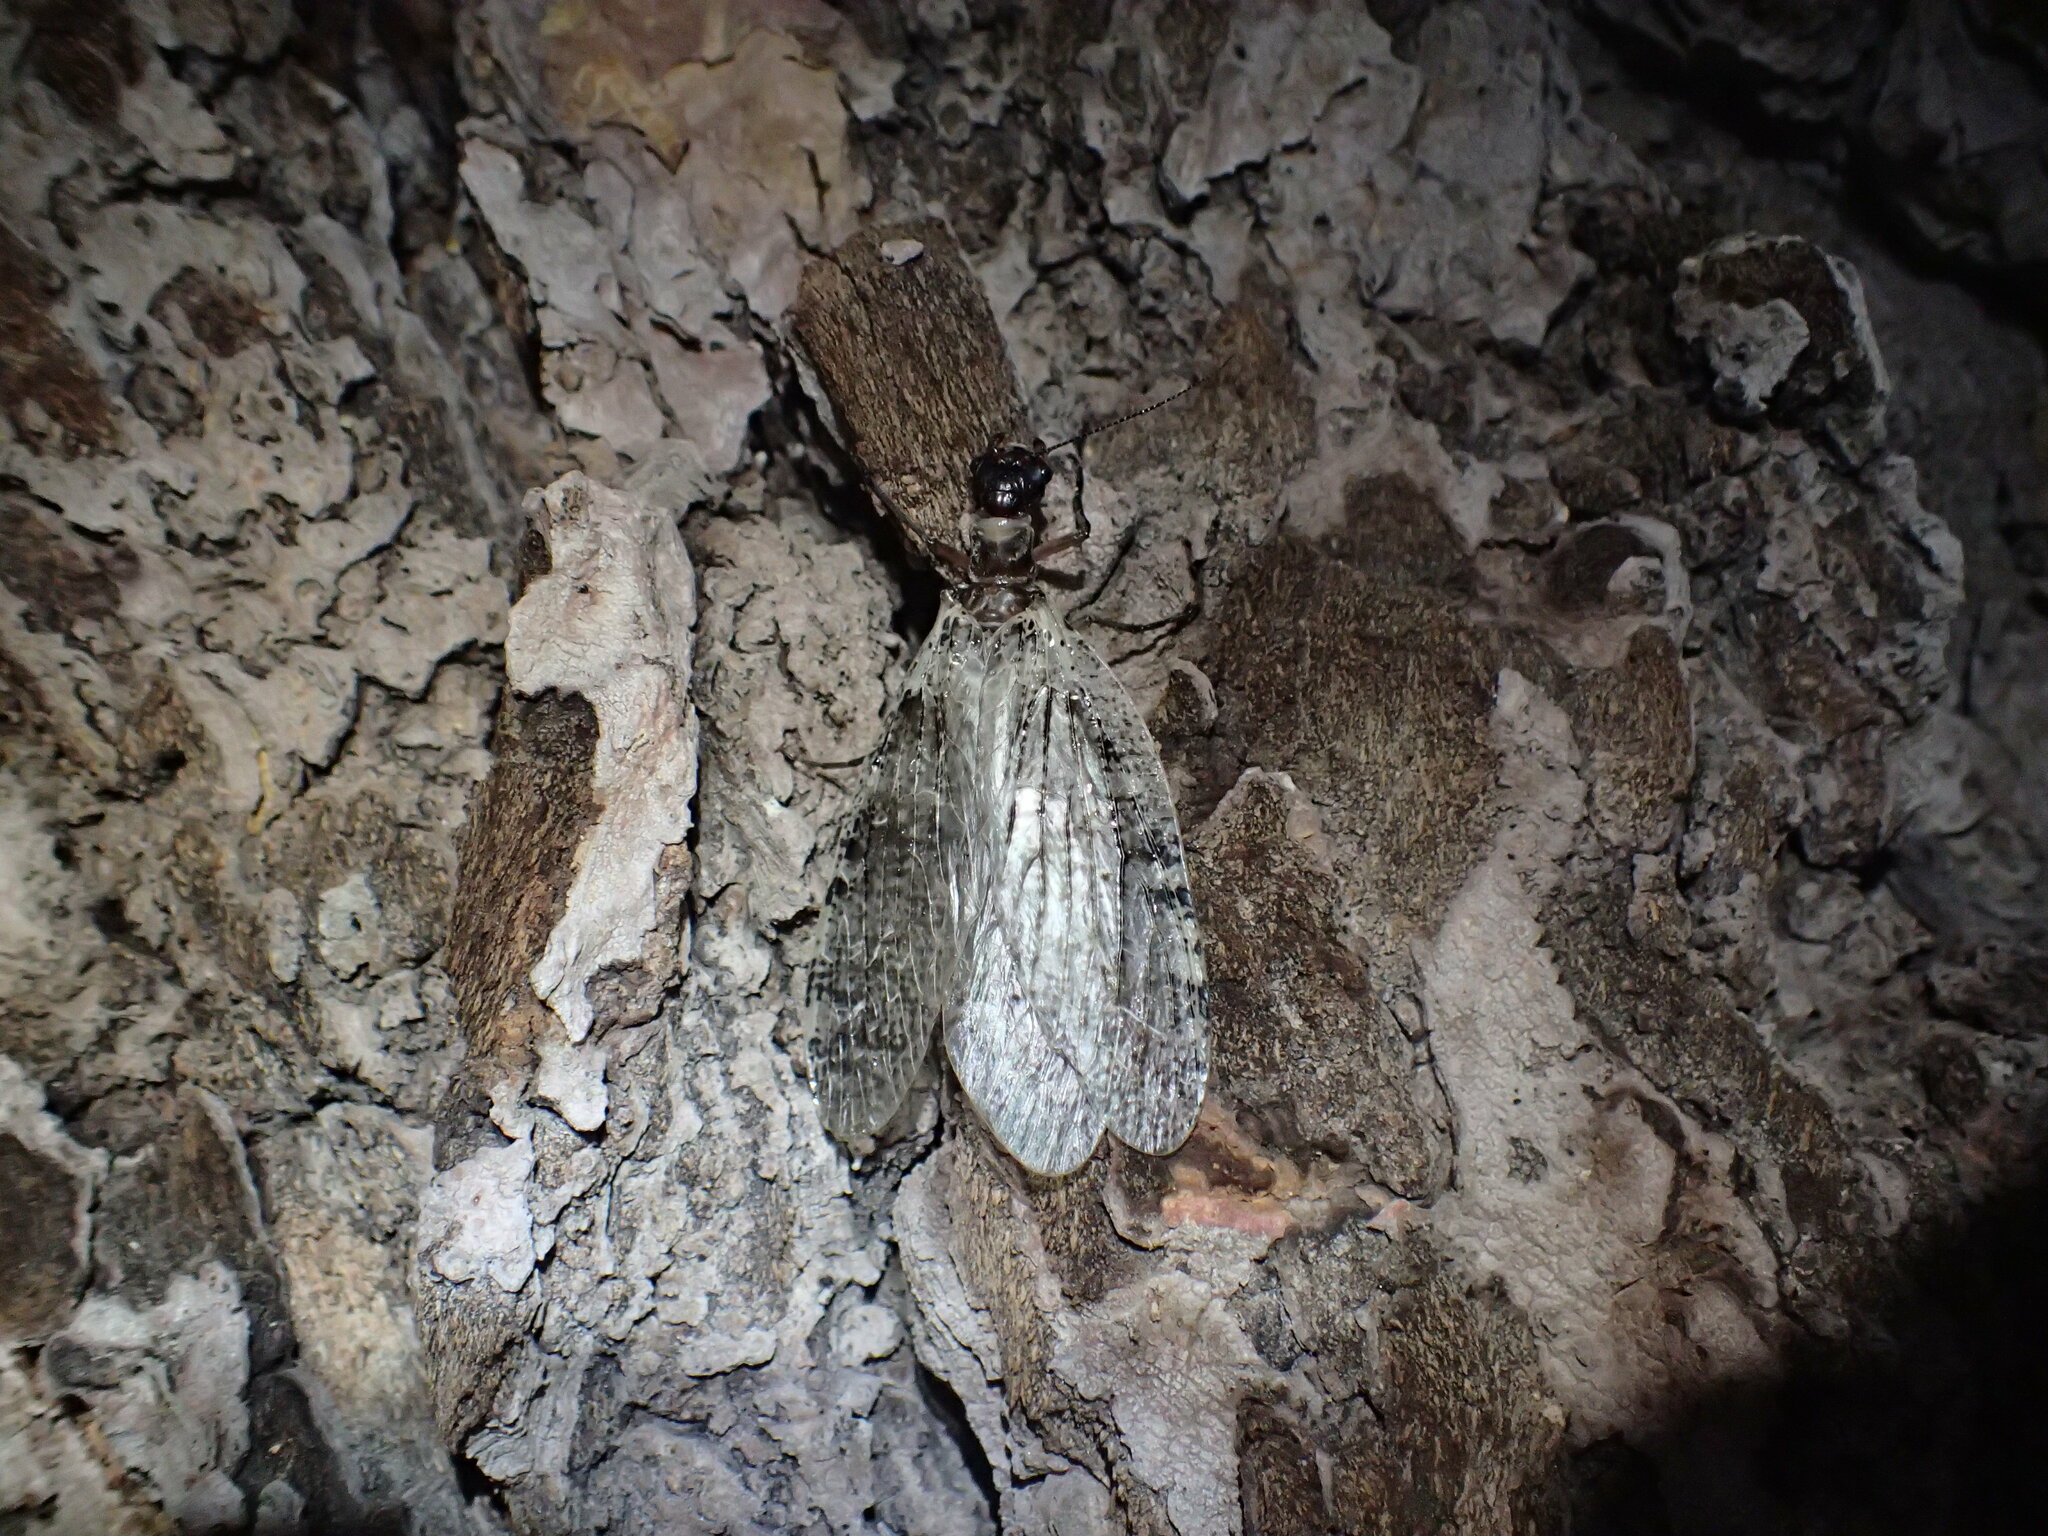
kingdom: Animalia
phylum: Arthropoda
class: Insecta
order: Megaloptera
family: Corydalidae
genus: Orohermes
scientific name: Orohermes crepusculus
